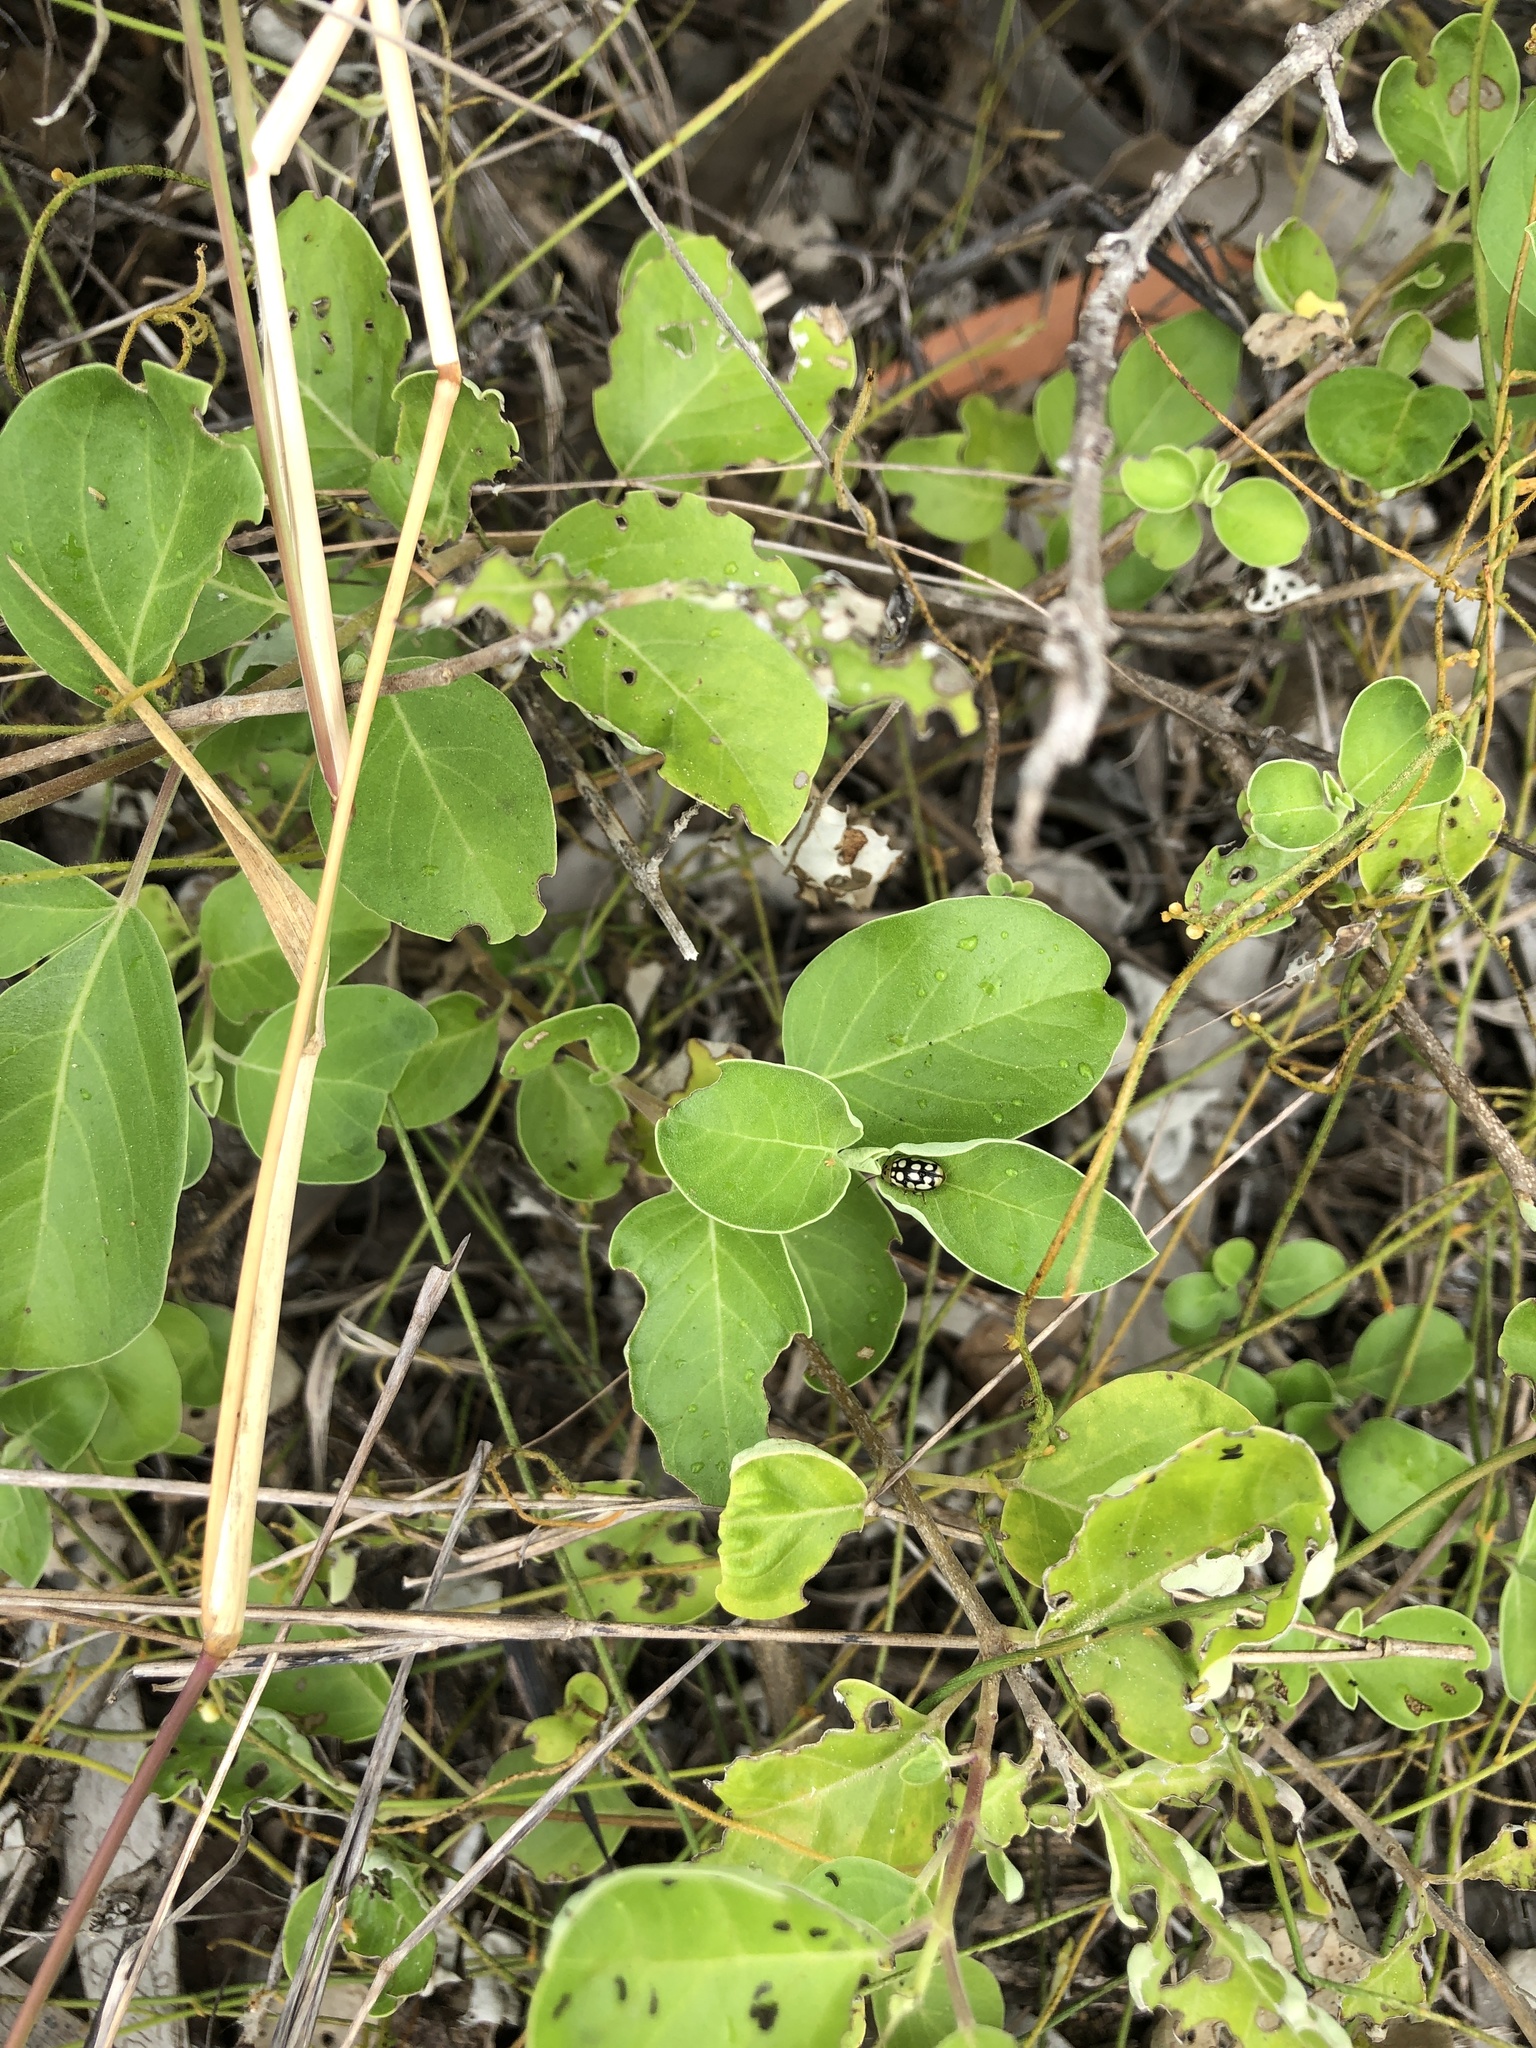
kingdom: Plantae
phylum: Tracheophyta
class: Magnoliopsida
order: Lamiales
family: Lamiaceae
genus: Vitex
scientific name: Vitex rotundifolia
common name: Beach vitex
